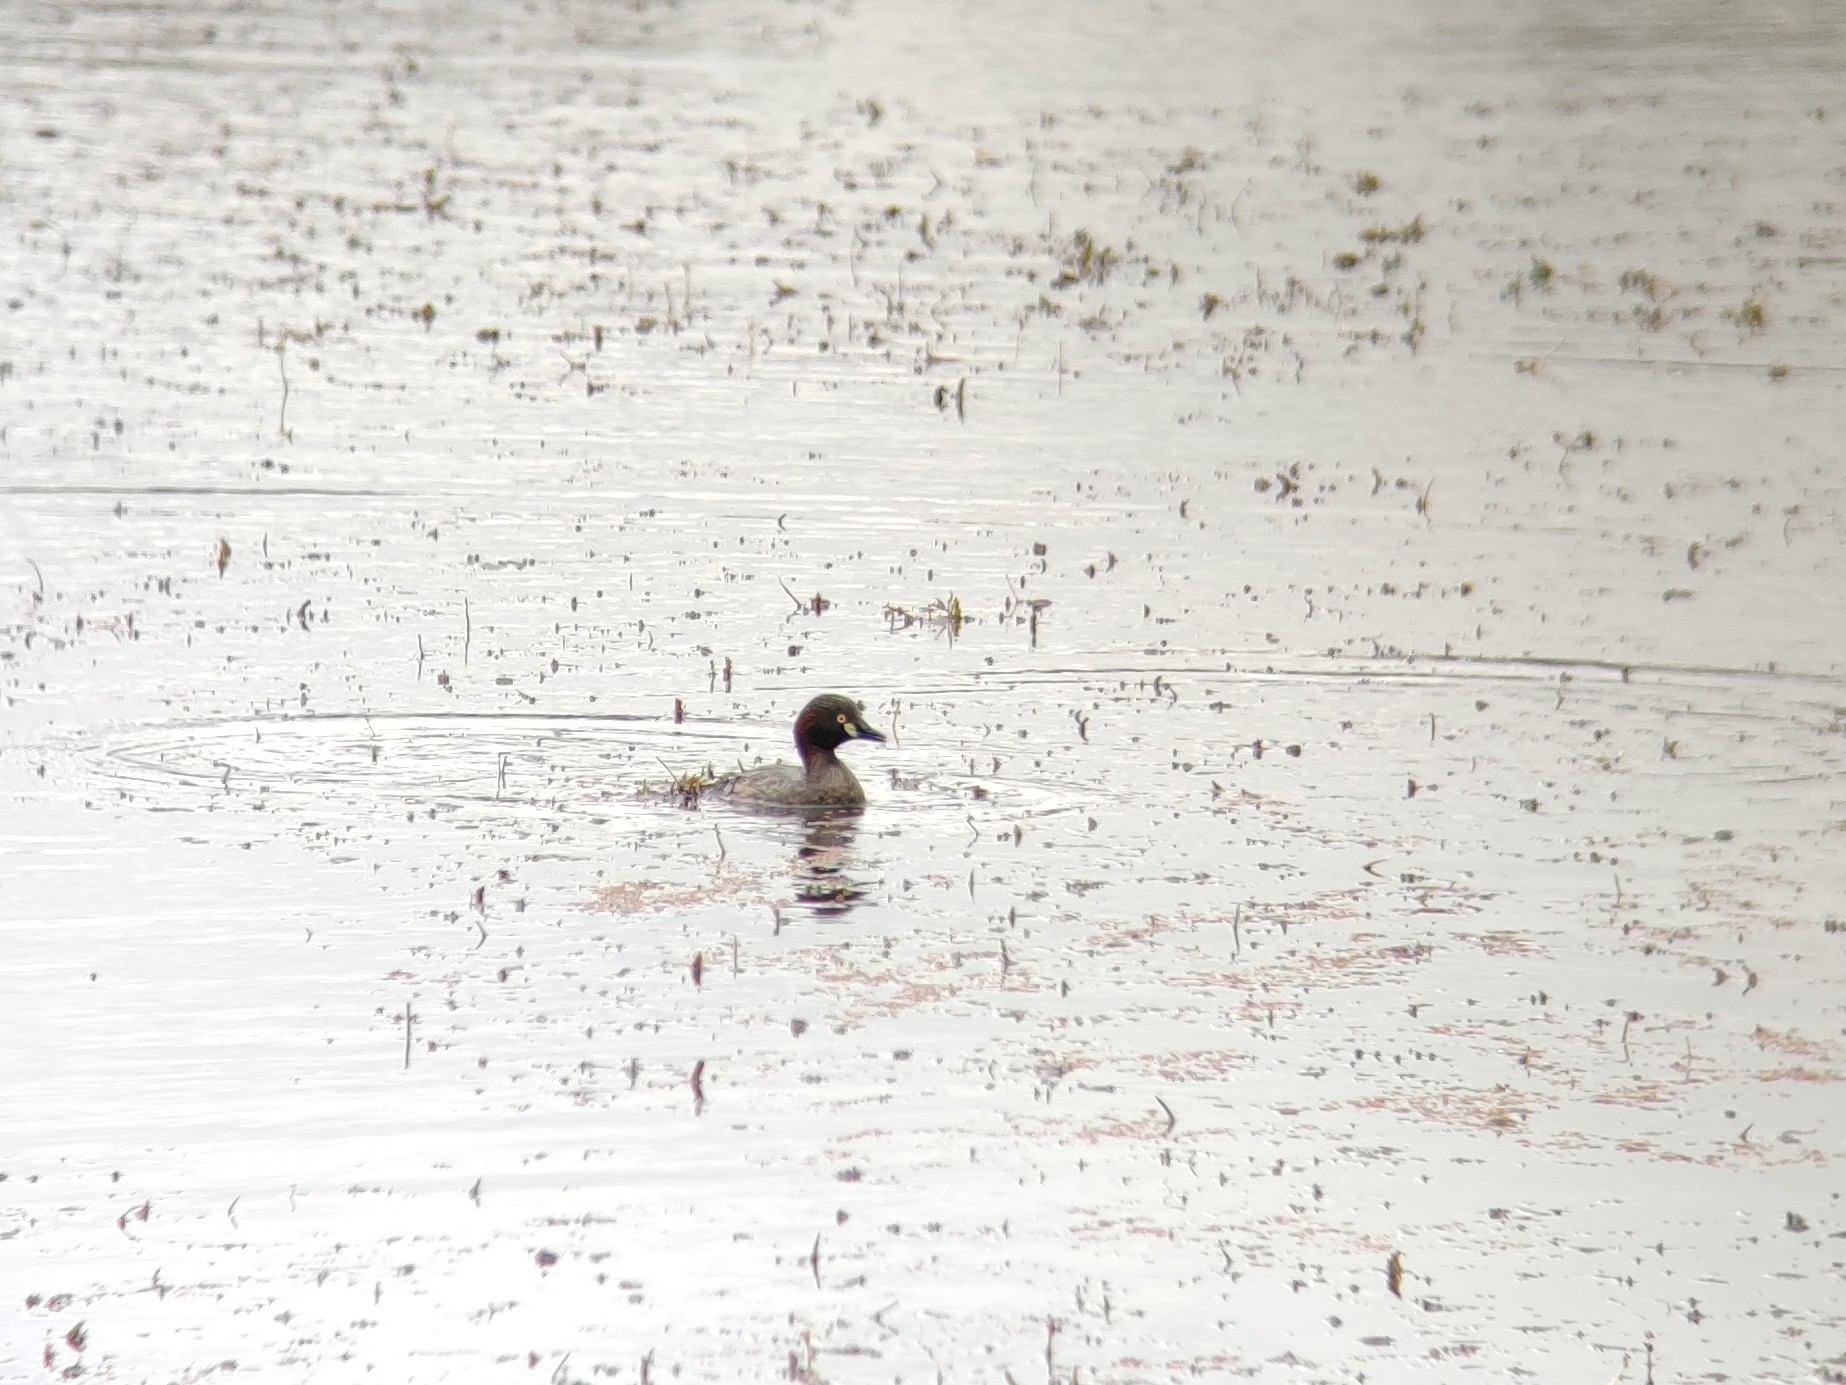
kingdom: Animalia
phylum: Chordata
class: Aves
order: Podicipediformes
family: Podicipedidae
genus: Tachybaptus
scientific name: Tachybaptus novaehollandiae
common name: Australasian grebe
